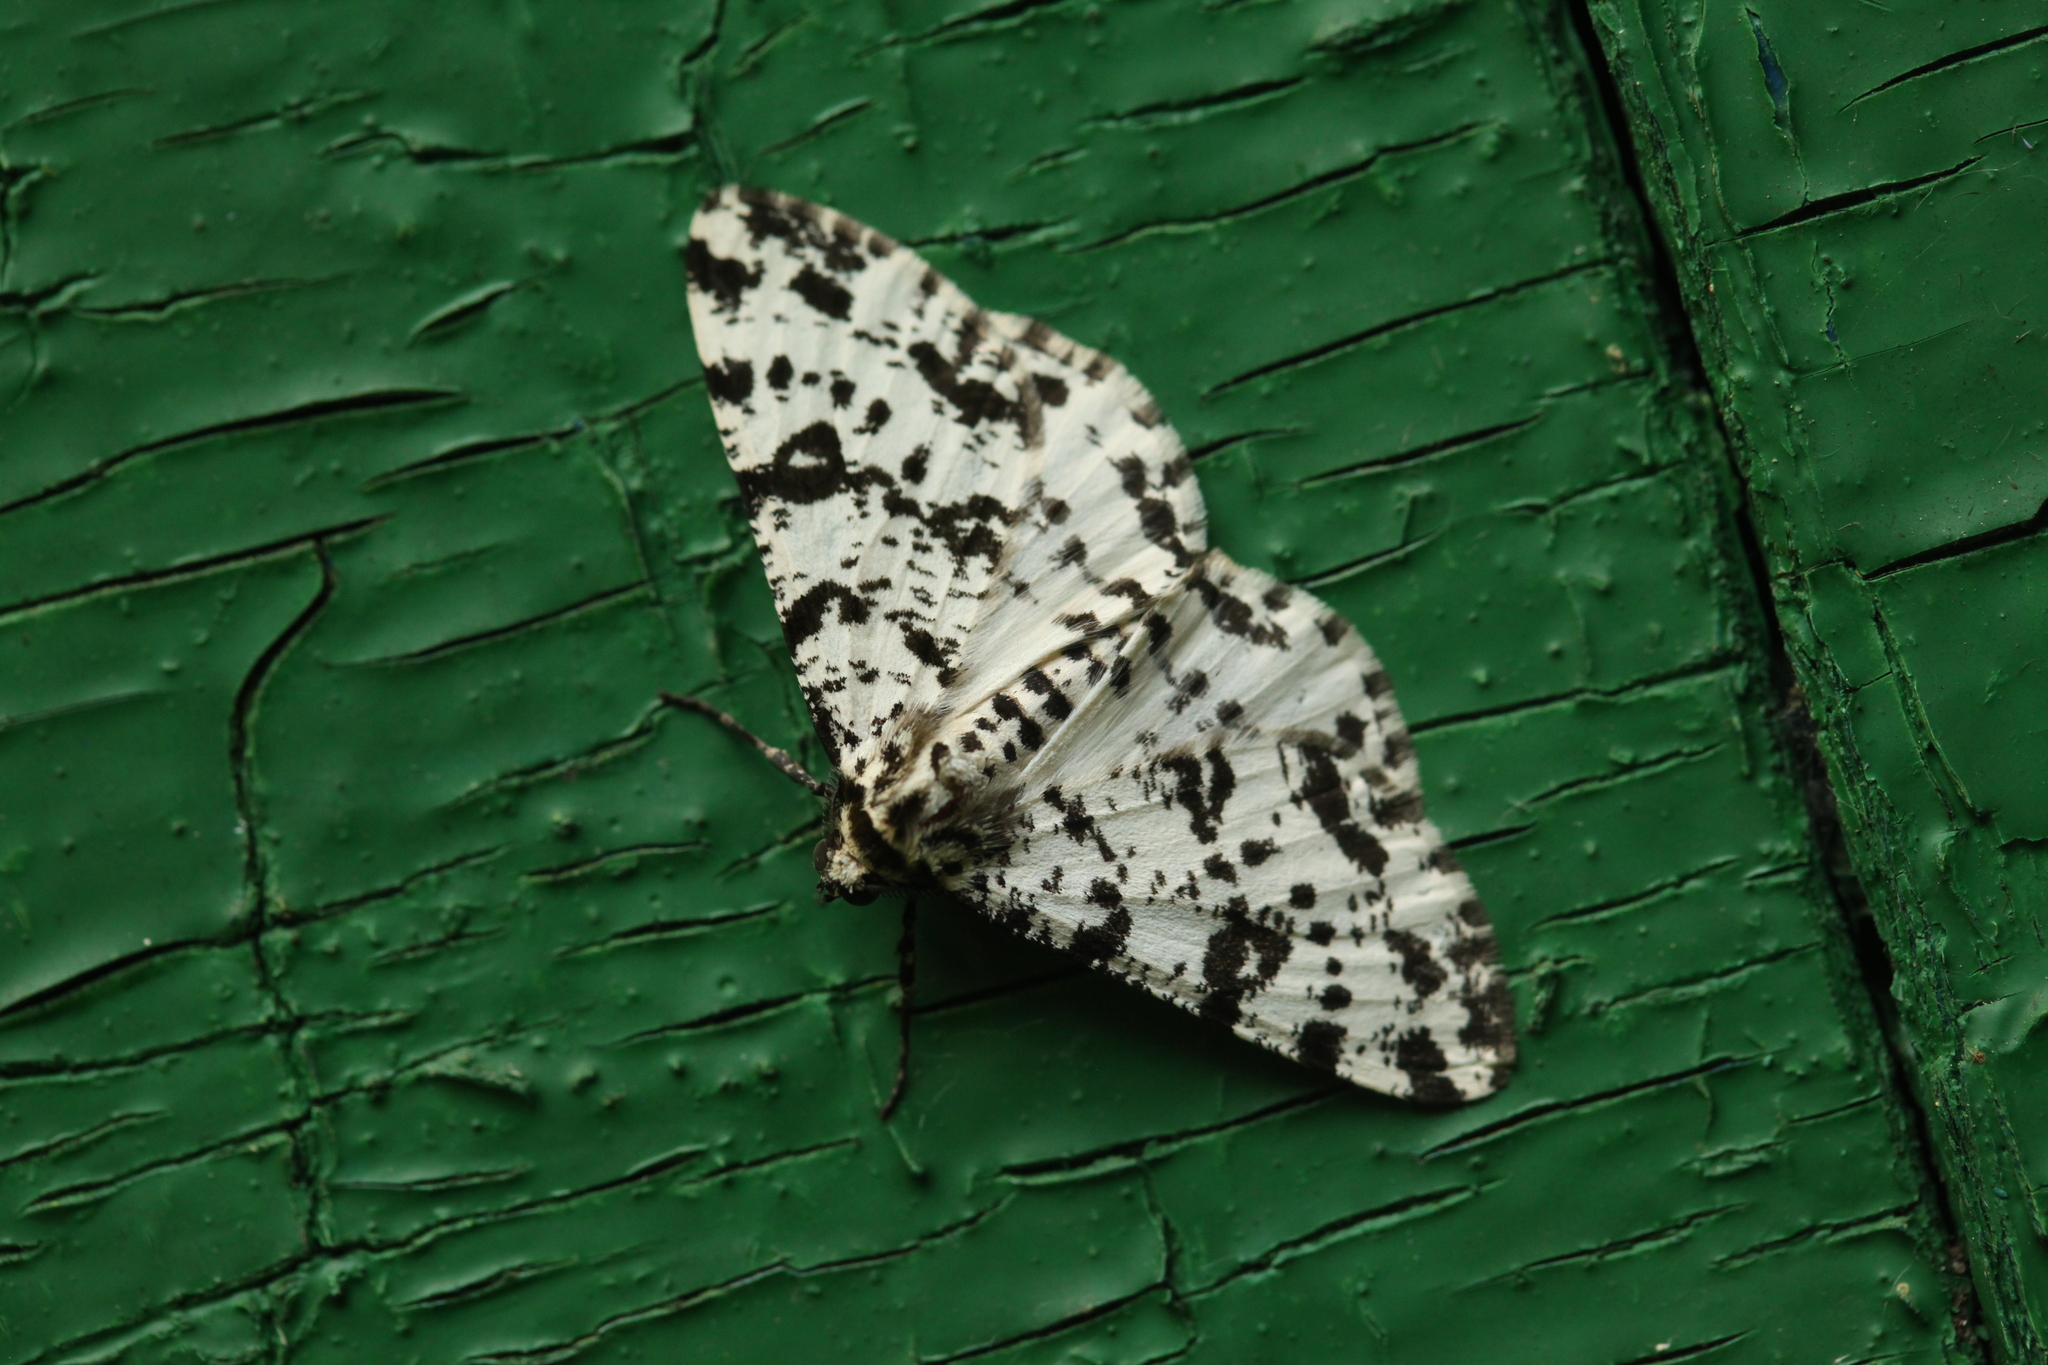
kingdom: Animalia
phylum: Arthropoda
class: Insecta
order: Lepidoptera
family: Geometridae
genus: Deileptenia
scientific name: Deileptenia mandshuriaria
